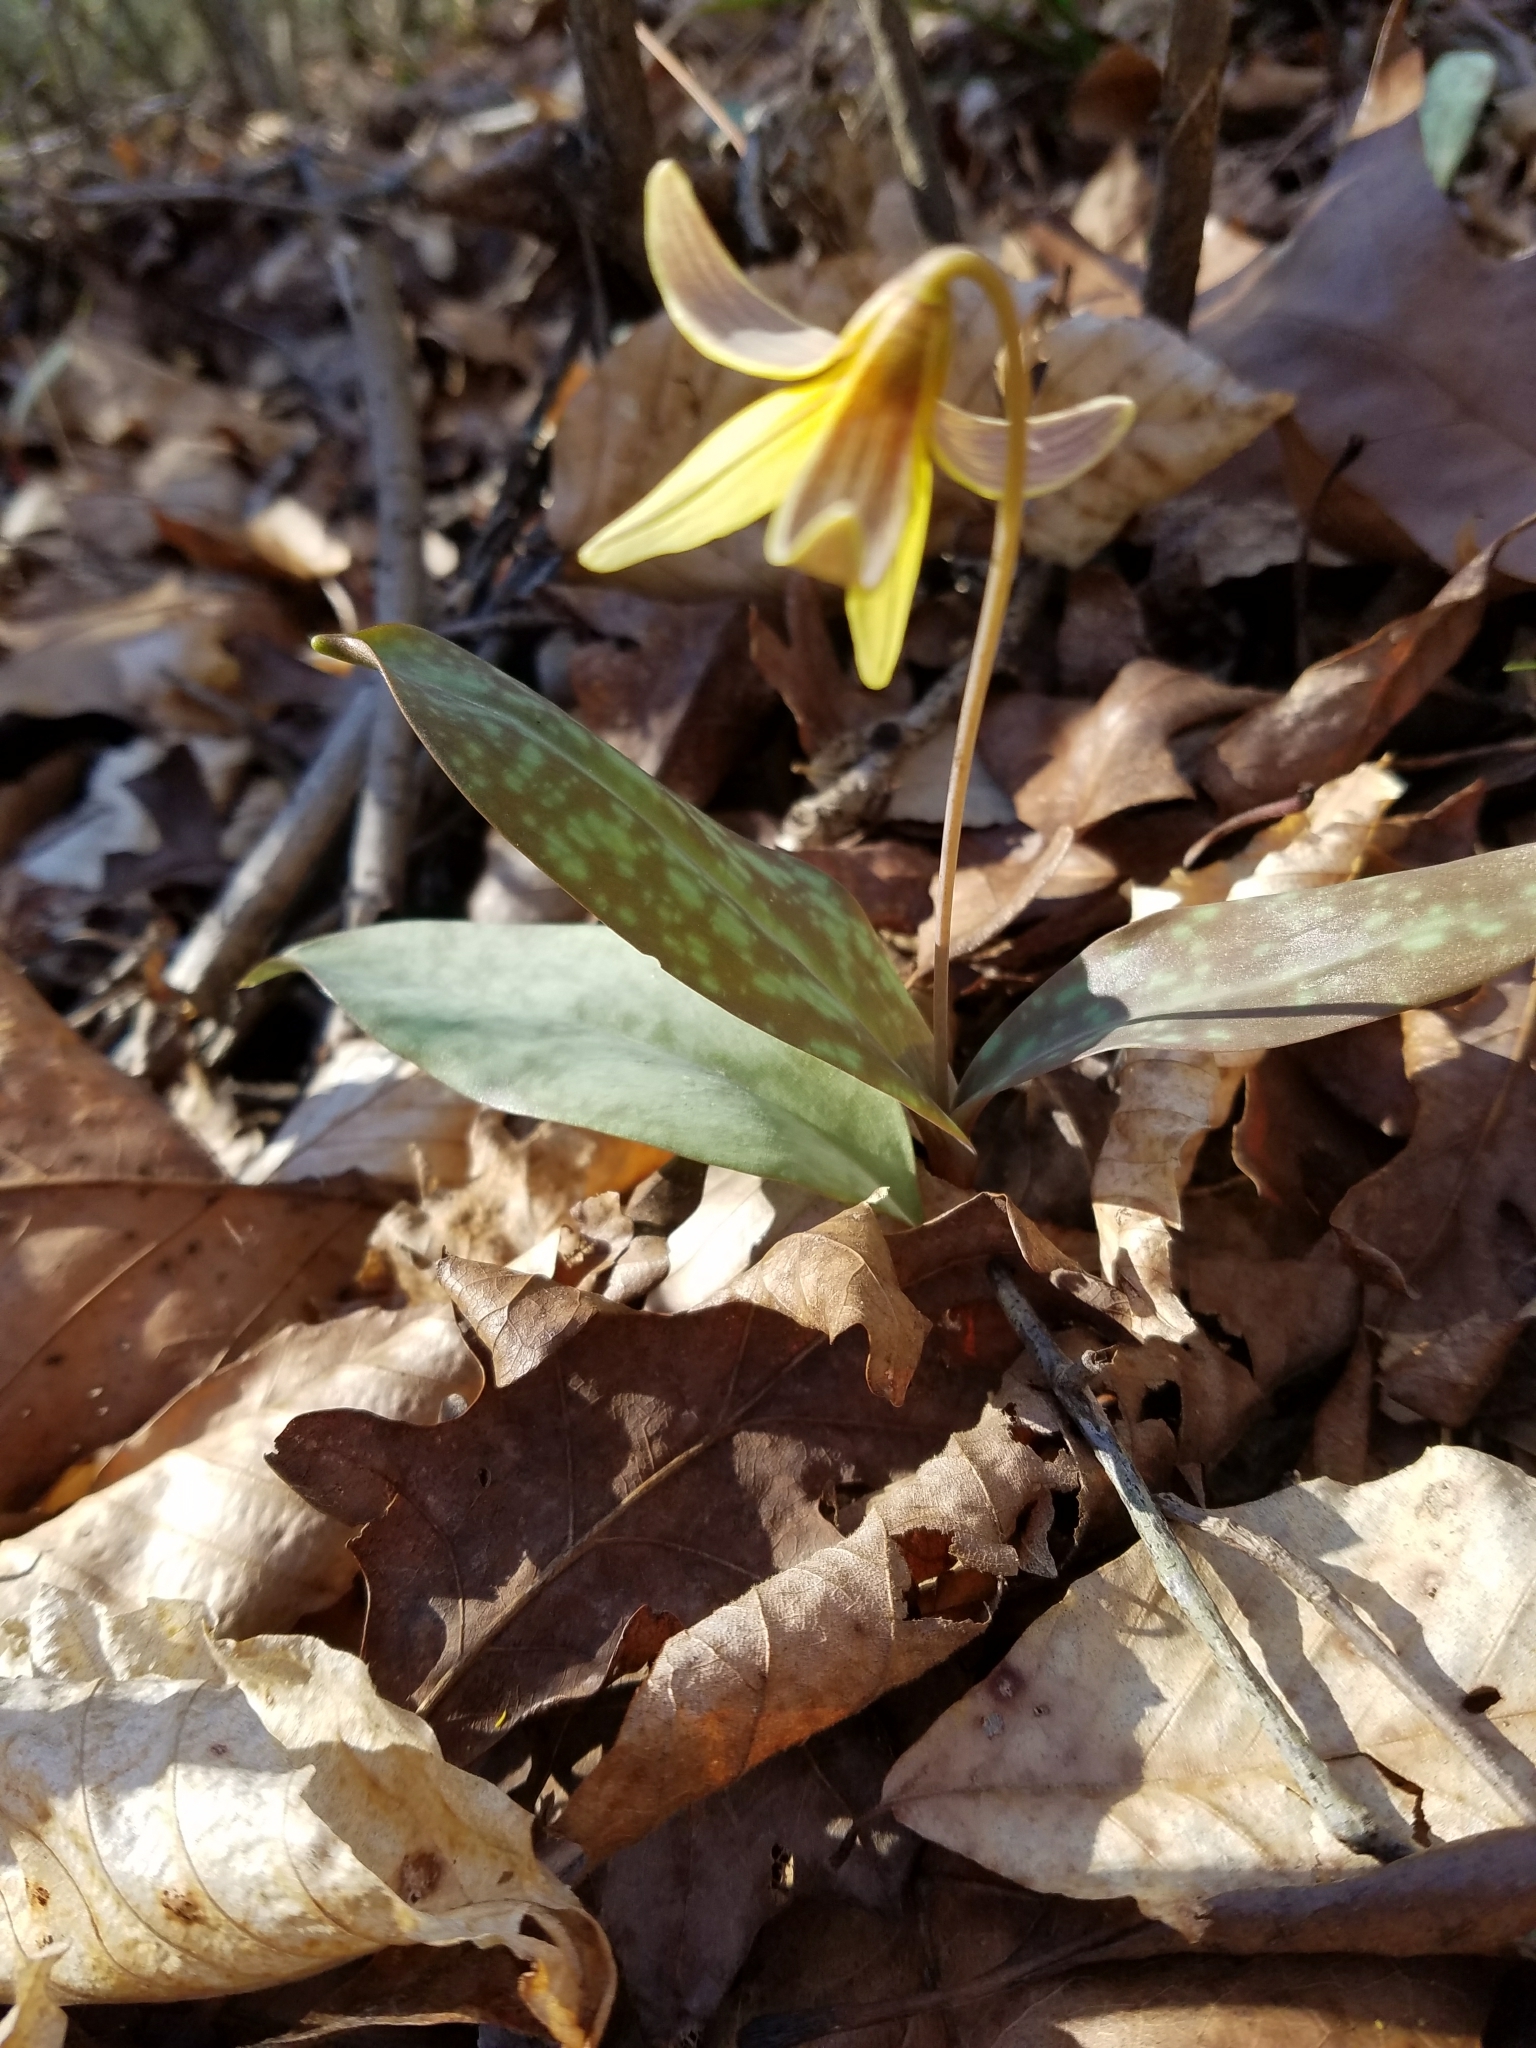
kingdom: Plantae
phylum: Tracheophyta
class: Liliopsida
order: Liliales
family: Liliaceae
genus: Erythronium
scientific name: Erythronium americanum
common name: Yellow adder's-tongue
